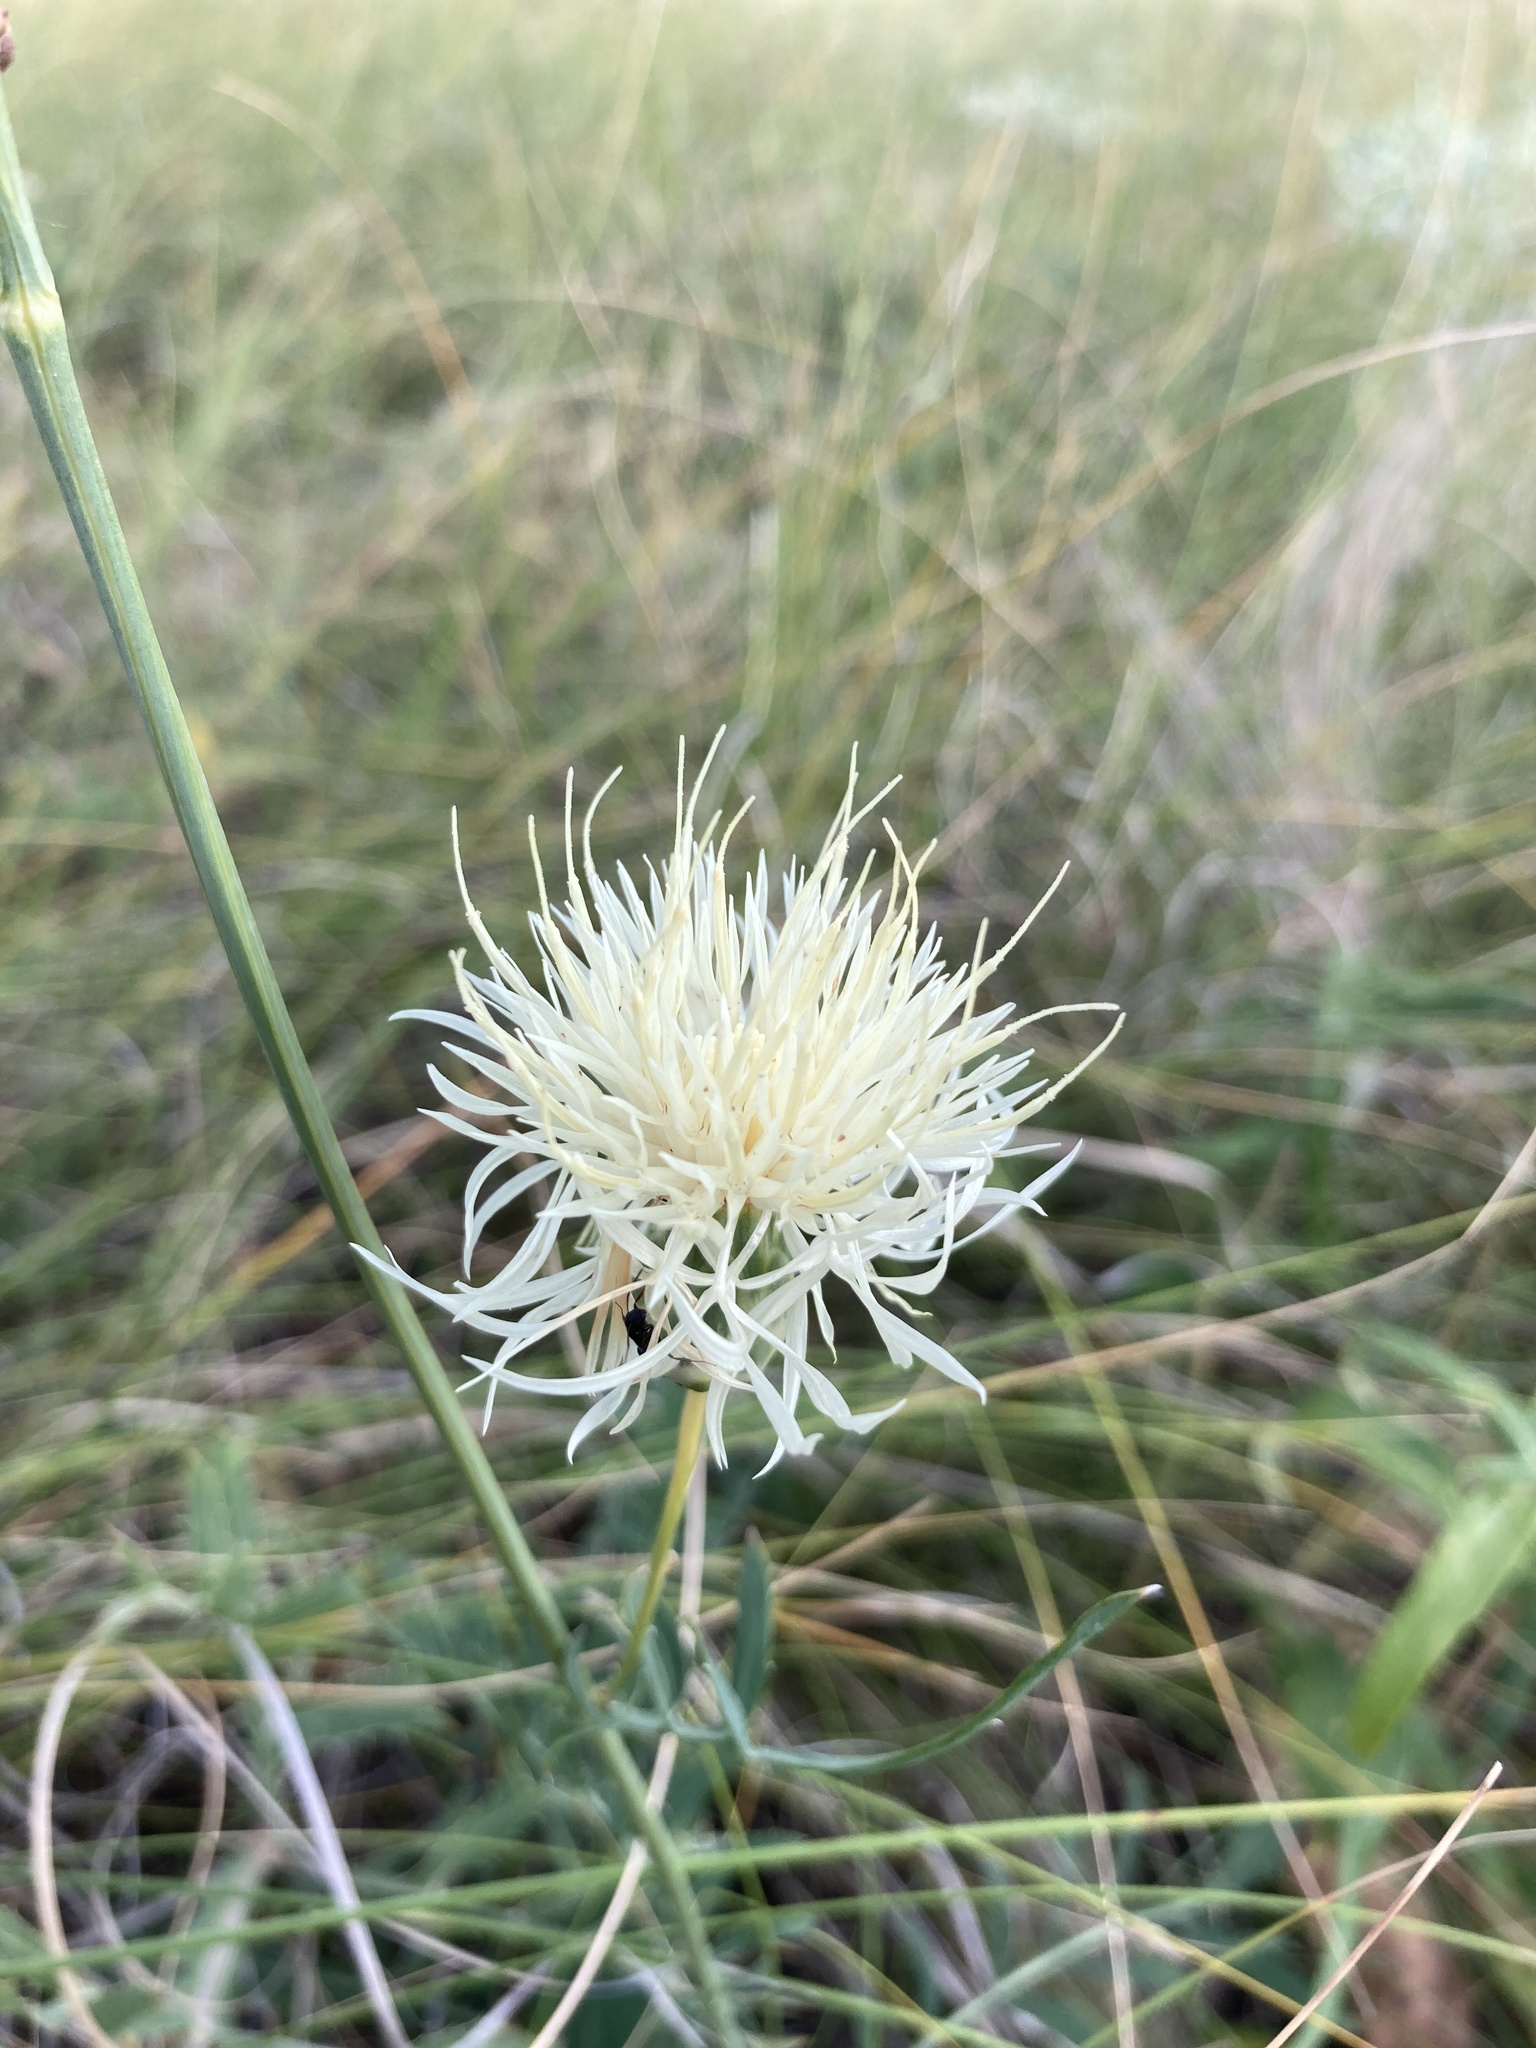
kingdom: Plantae
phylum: Tracheophyta
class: Magnoliopsida
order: Asterales
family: Asteraceae
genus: Rhaponticoides
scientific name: Rhaponticoides ruthenica
